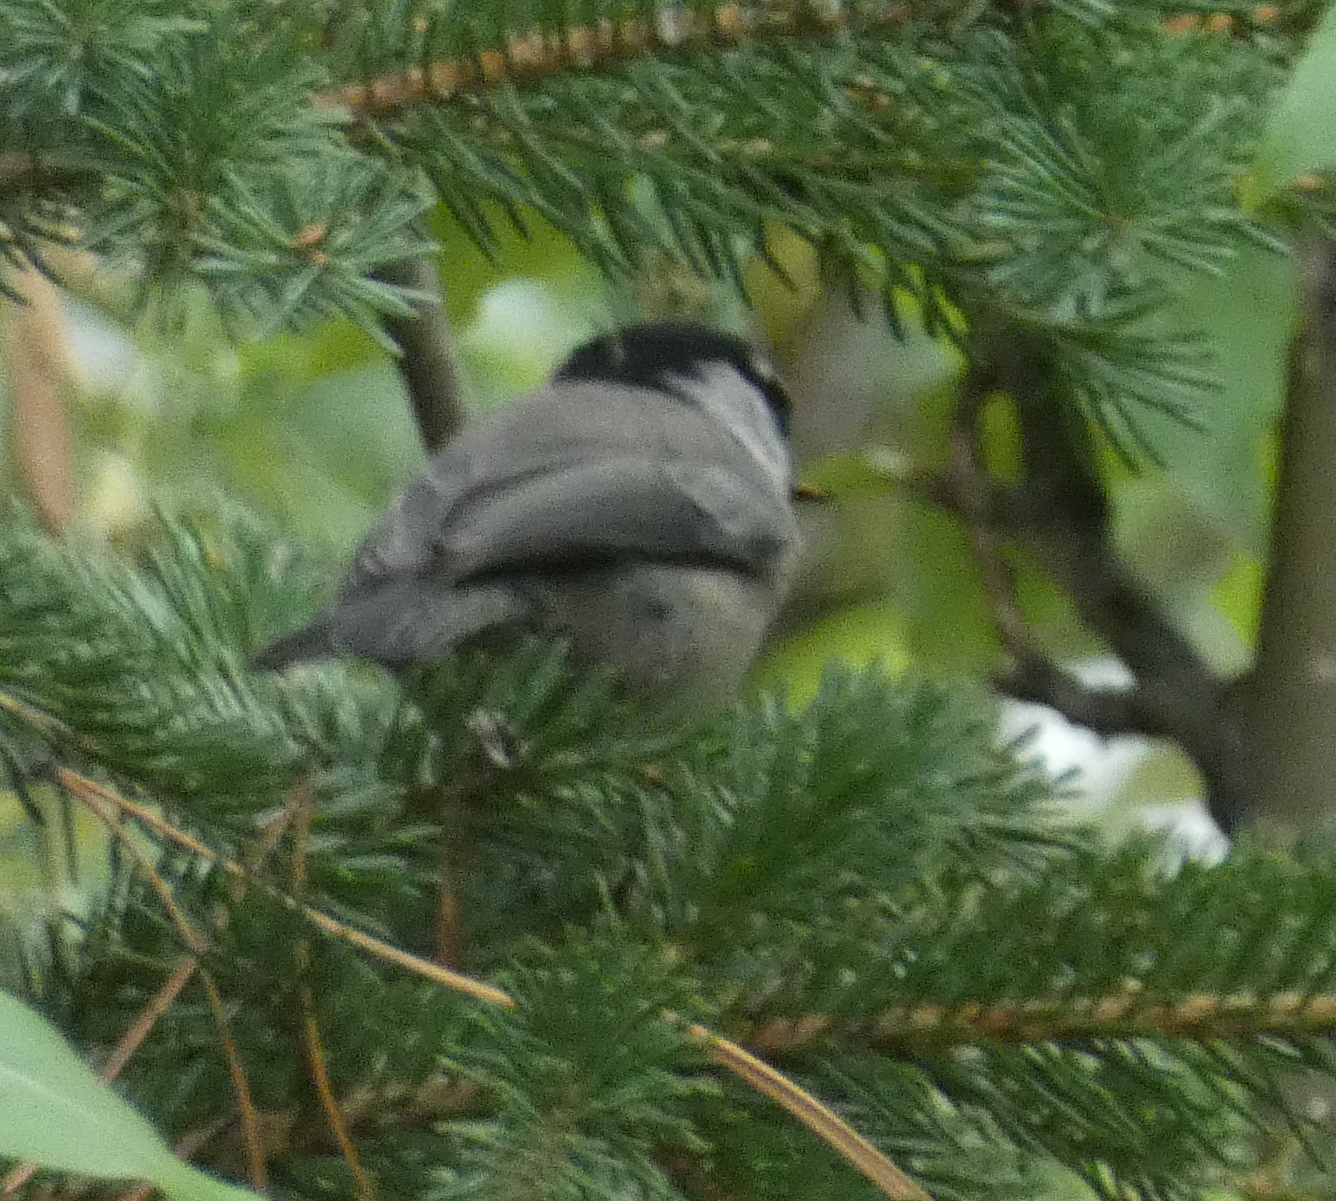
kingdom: Animalia
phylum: Chordata
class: Aves
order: Passeriformes
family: Paridae
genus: Poecile
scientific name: Poecile gambeli
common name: Mountain chickadee
